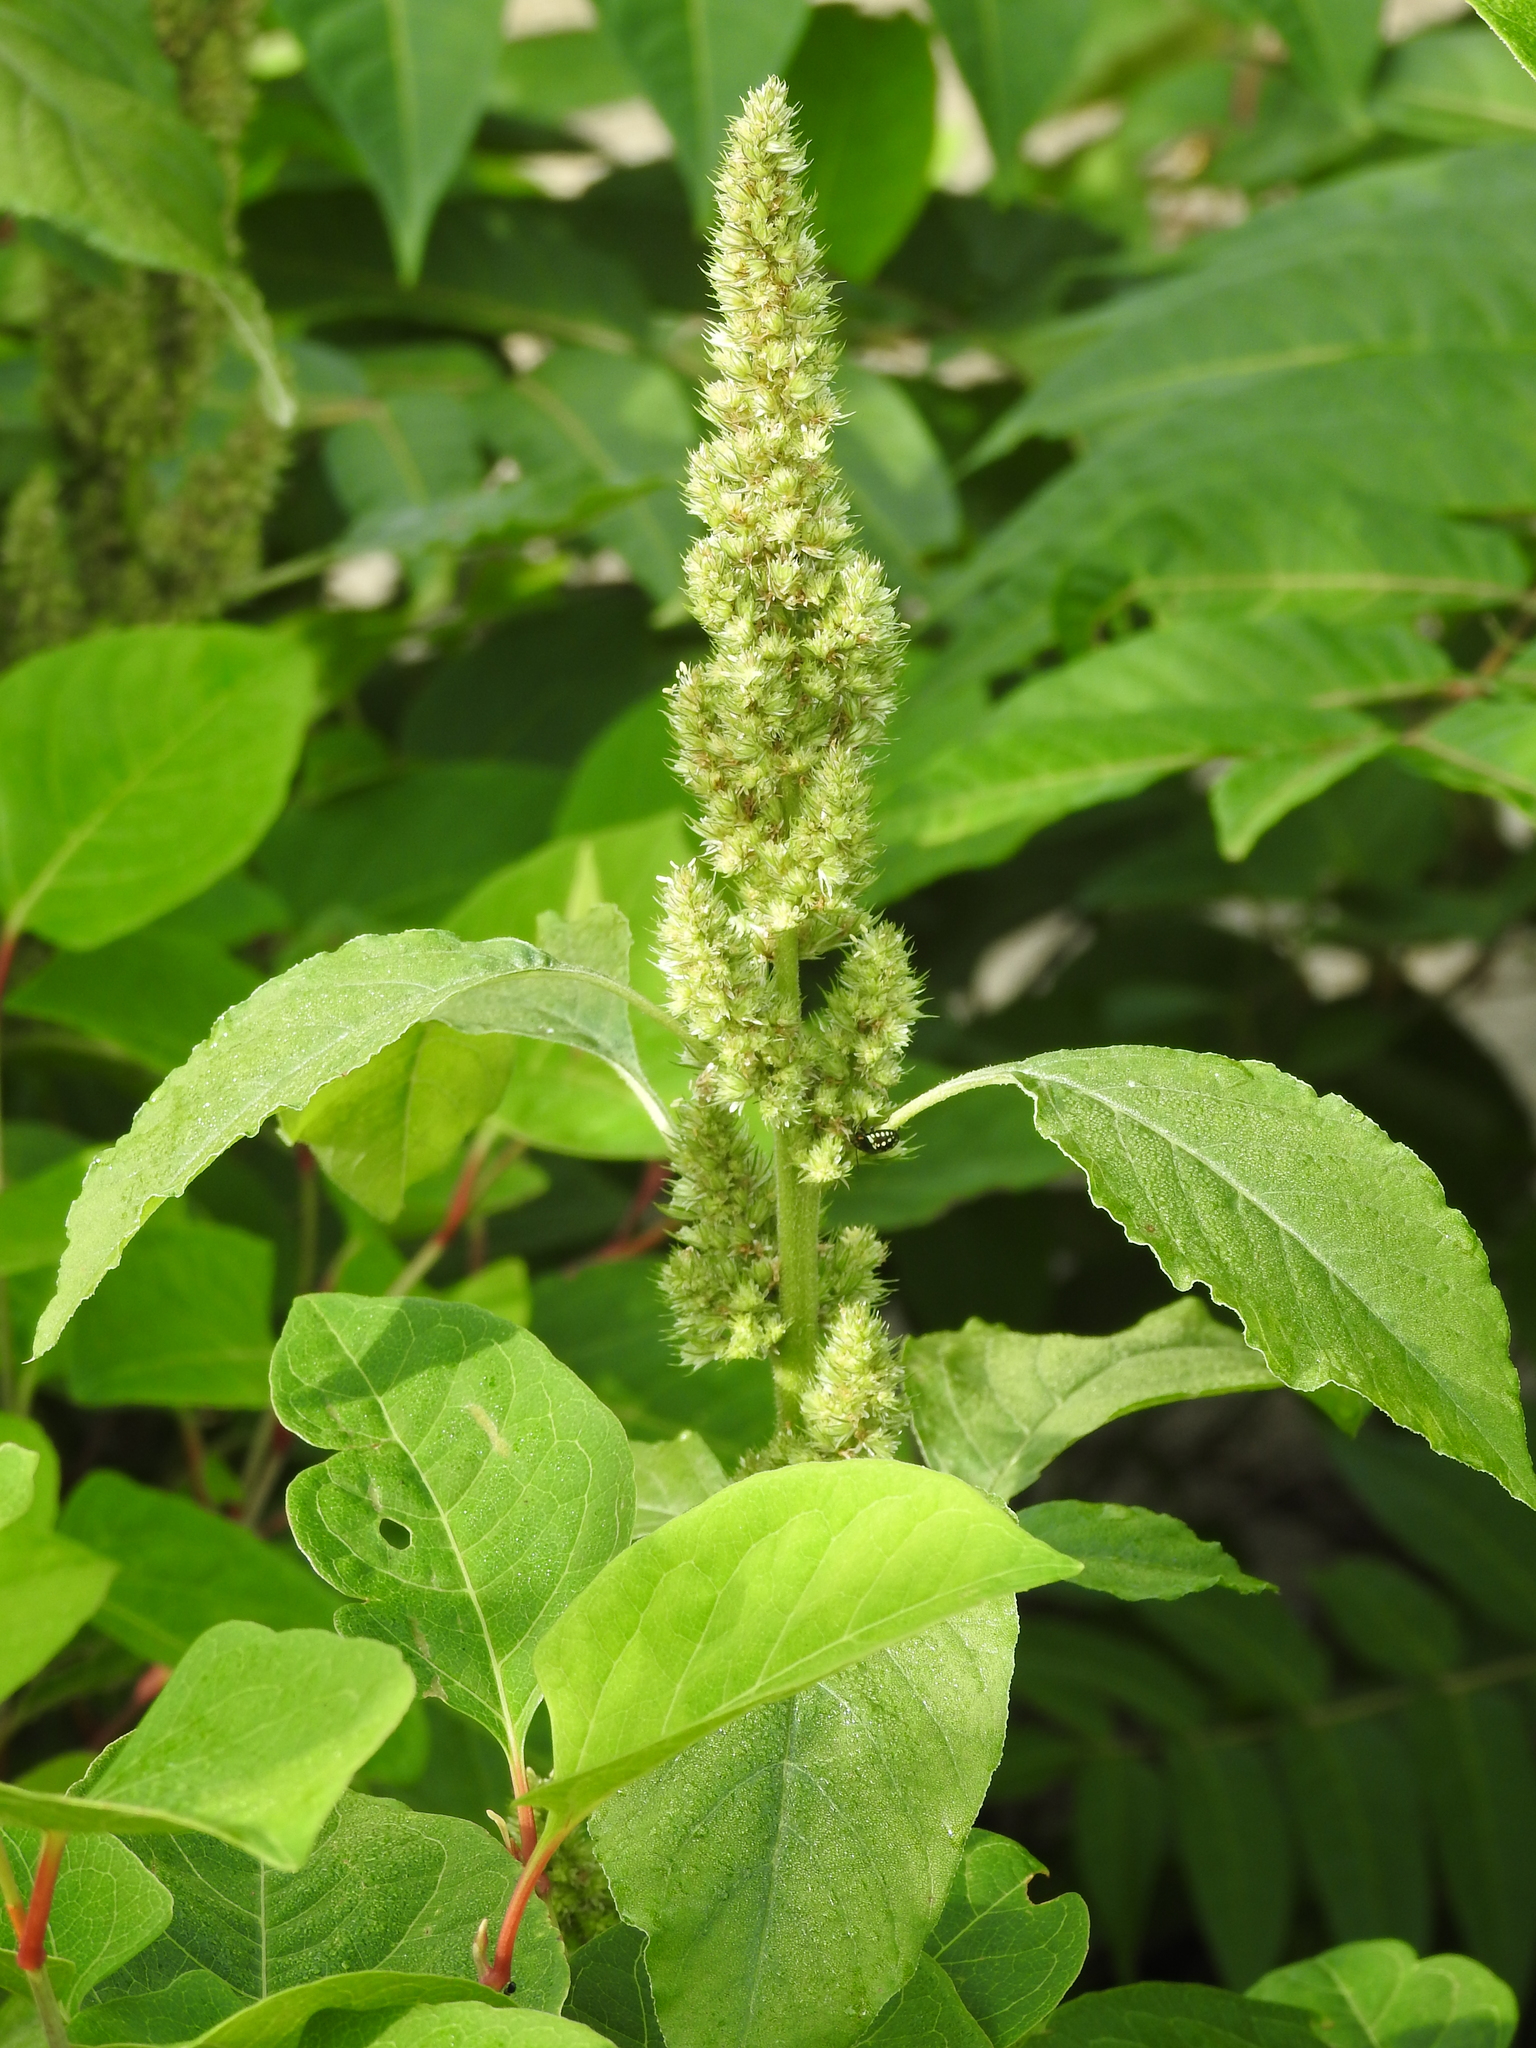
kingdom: Plantae
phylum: Tracheophyta
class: Magnoliopsida
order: Caryophyllales
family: Amaranthaceae
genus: Amaranthus
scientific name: Amaranthus retroflexus
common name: Redroot amaranth
